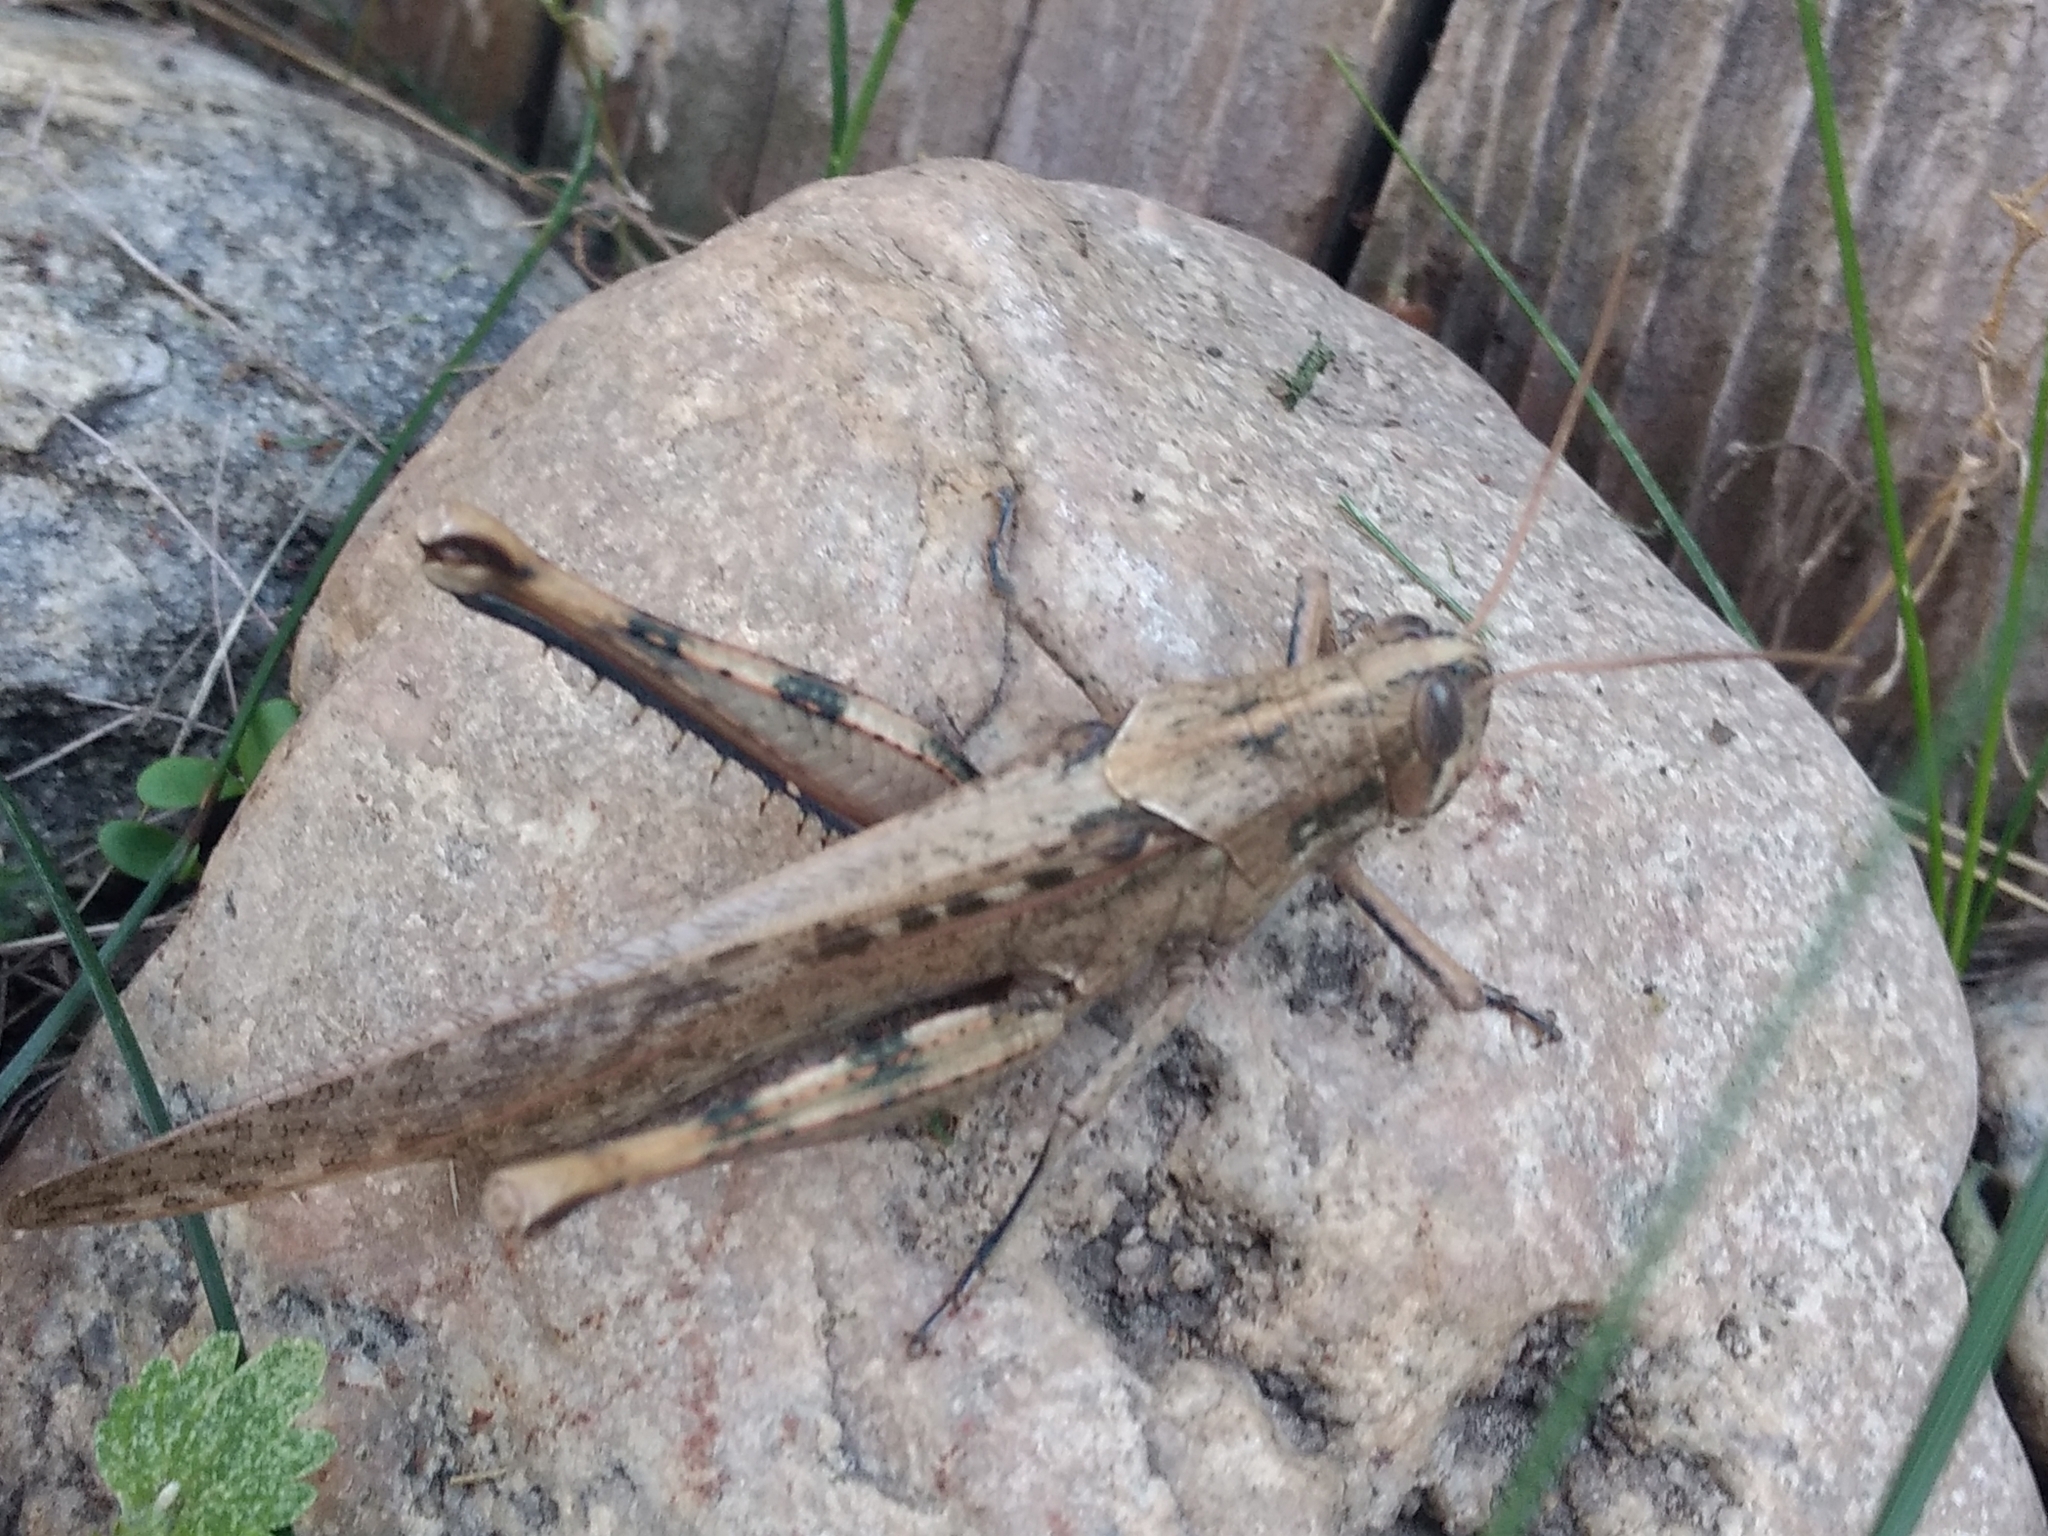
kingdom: Animalia
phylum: Arthropoda
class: Insecta
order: Orthoptera
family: Acrididae
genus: Schistocerca
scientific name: Schistocerca nitens
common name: Vagrant grasshopper
